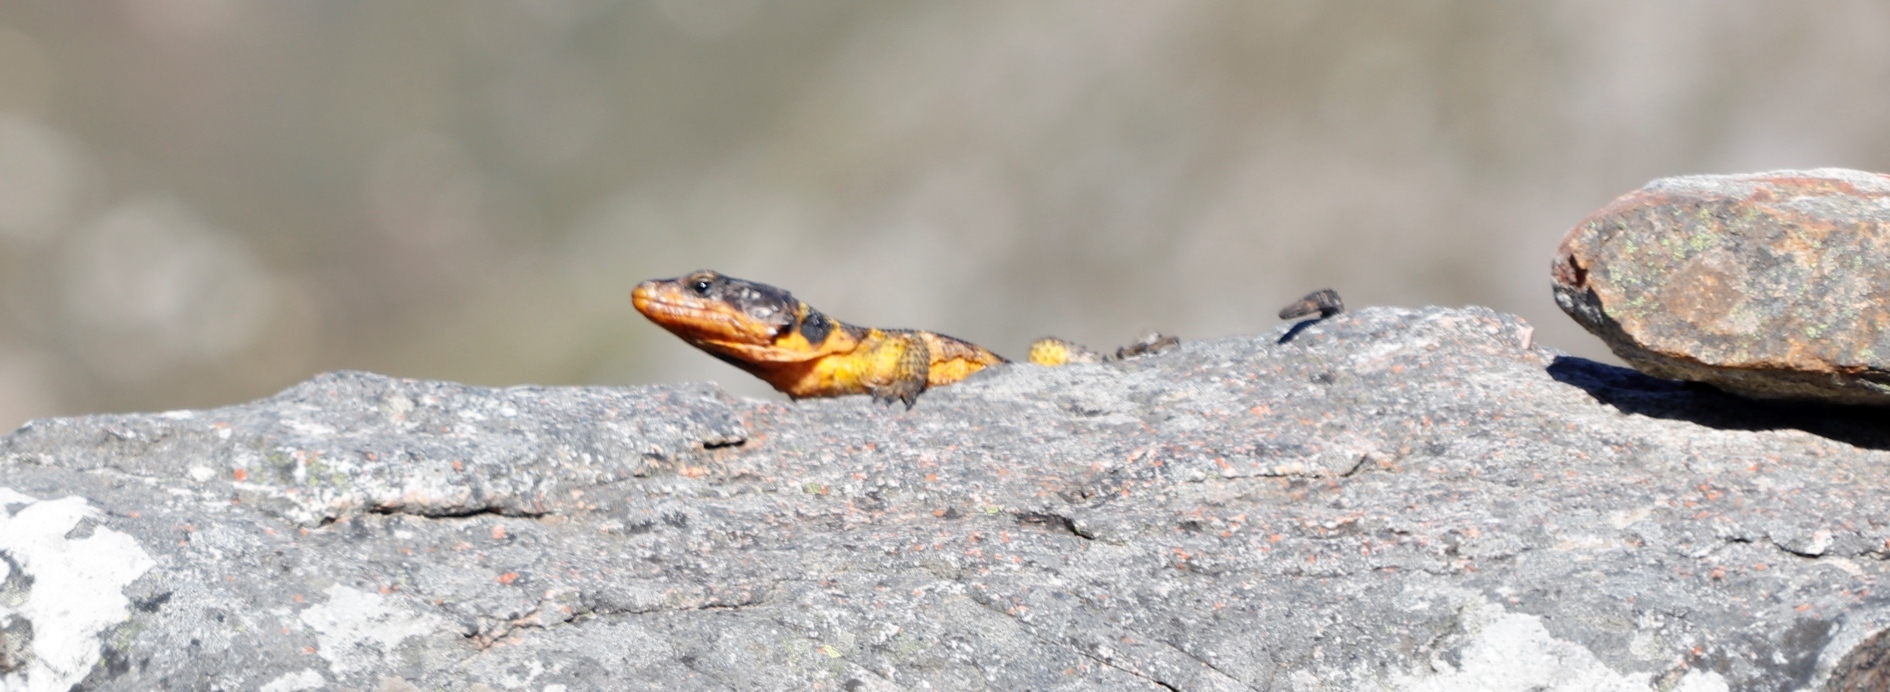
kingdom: Animalia
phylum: Chordata
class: Squamata
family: Cordylidae
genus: Pseudocordylus
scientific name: Pseudocordylus microlepidotus
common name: Cape crag lizard
